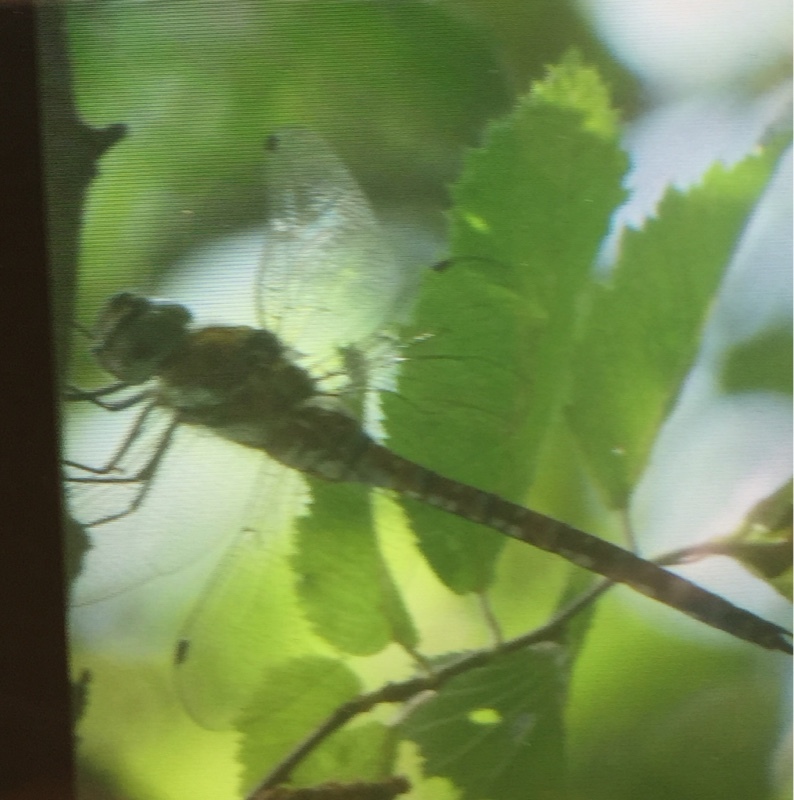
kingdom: Animalia
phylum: Arthropoda
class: Insecta
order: Odonata
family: Aeshnidae
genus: Aeshna
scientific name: Aeshna mixta
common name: Migrant hawker
